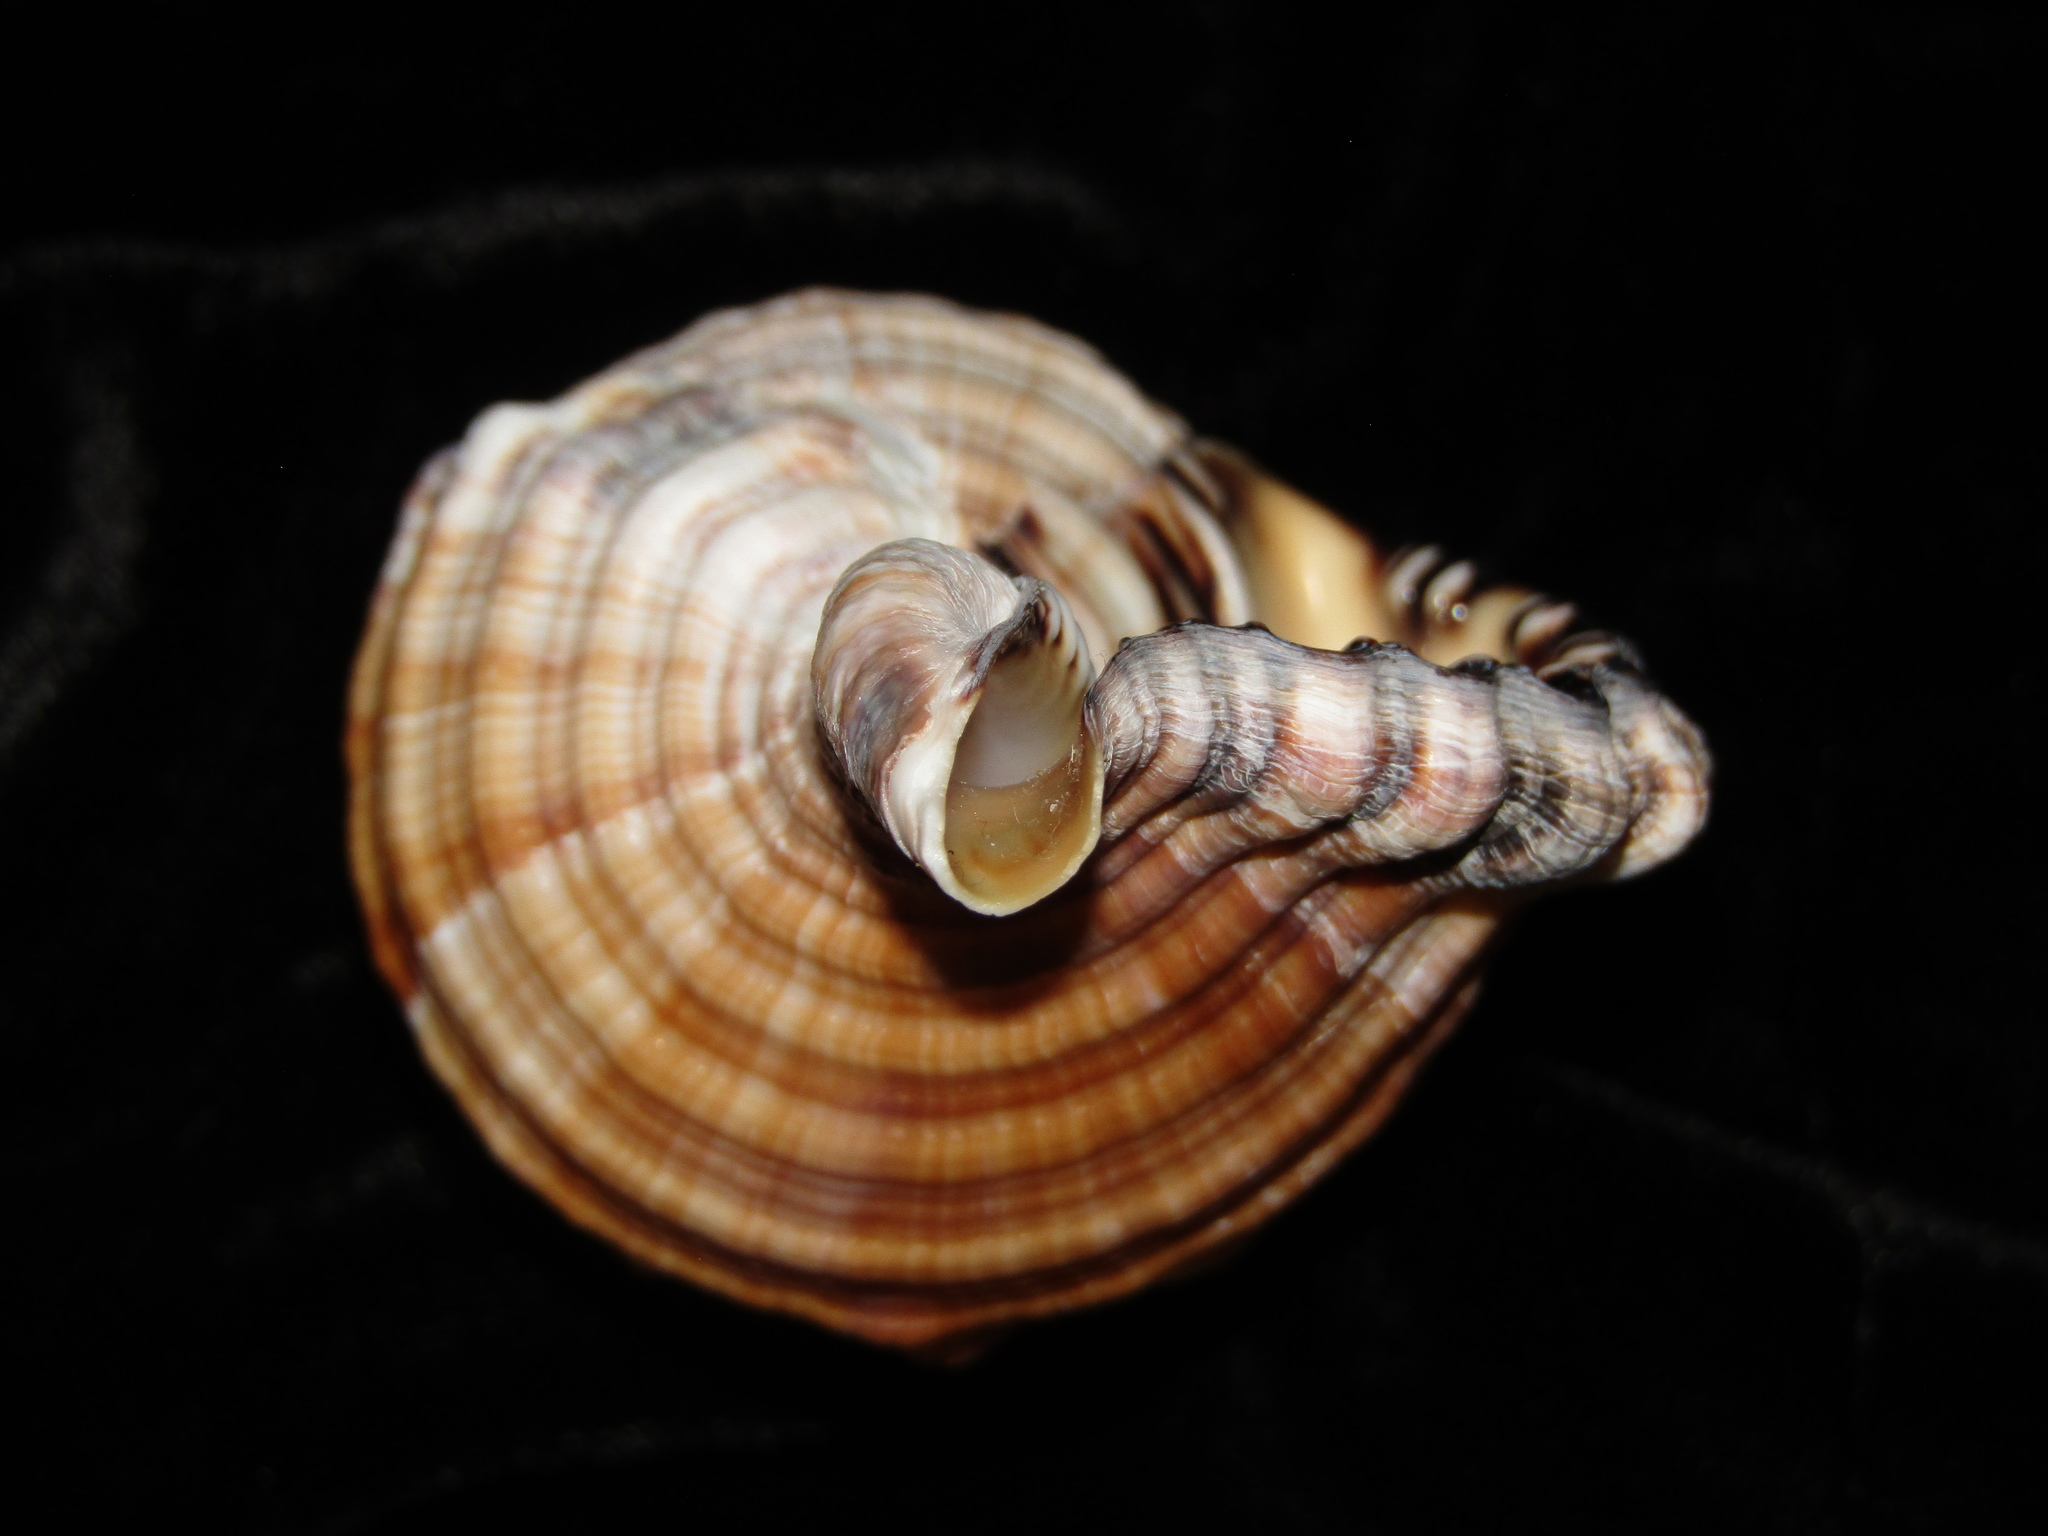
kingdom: Animalia
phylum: Mollusca
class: Gastropoda
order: Littorinimorpha
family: Cymatiidae
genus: Monoplex
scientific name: Monoplex parthenopeus
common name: Giant triton
